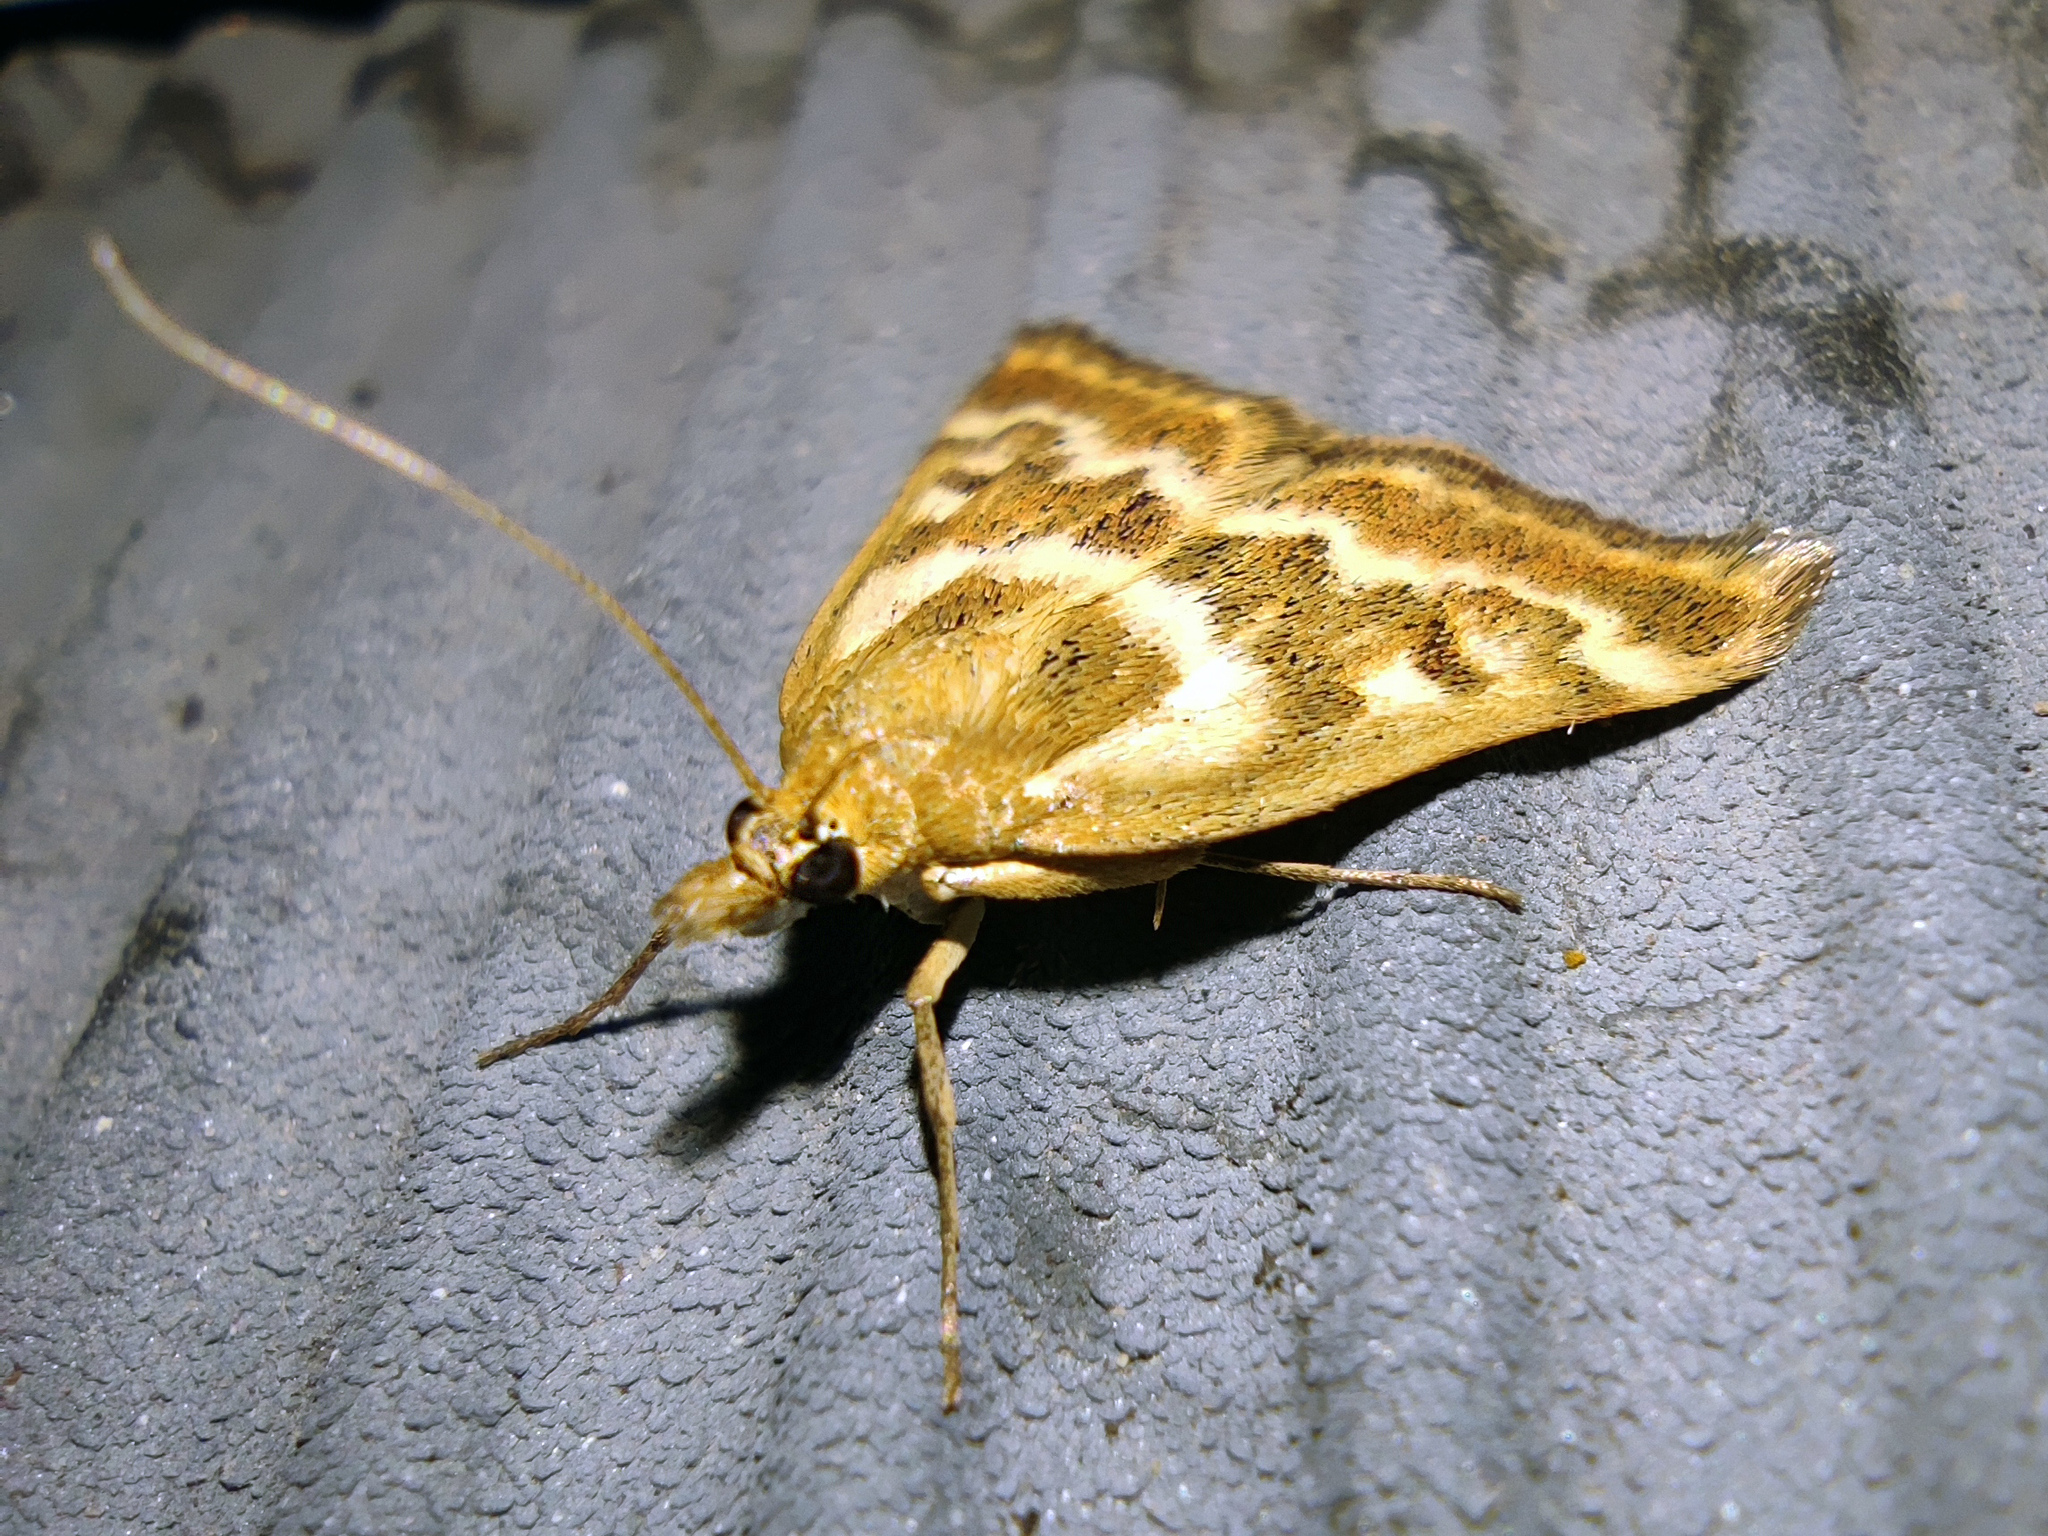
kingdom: Animalia
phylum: Arthropoda
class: Insecta
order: Lepidoptera
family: Crambidae
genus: Pyrausta
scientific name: Pyrausta limbopunctalis
